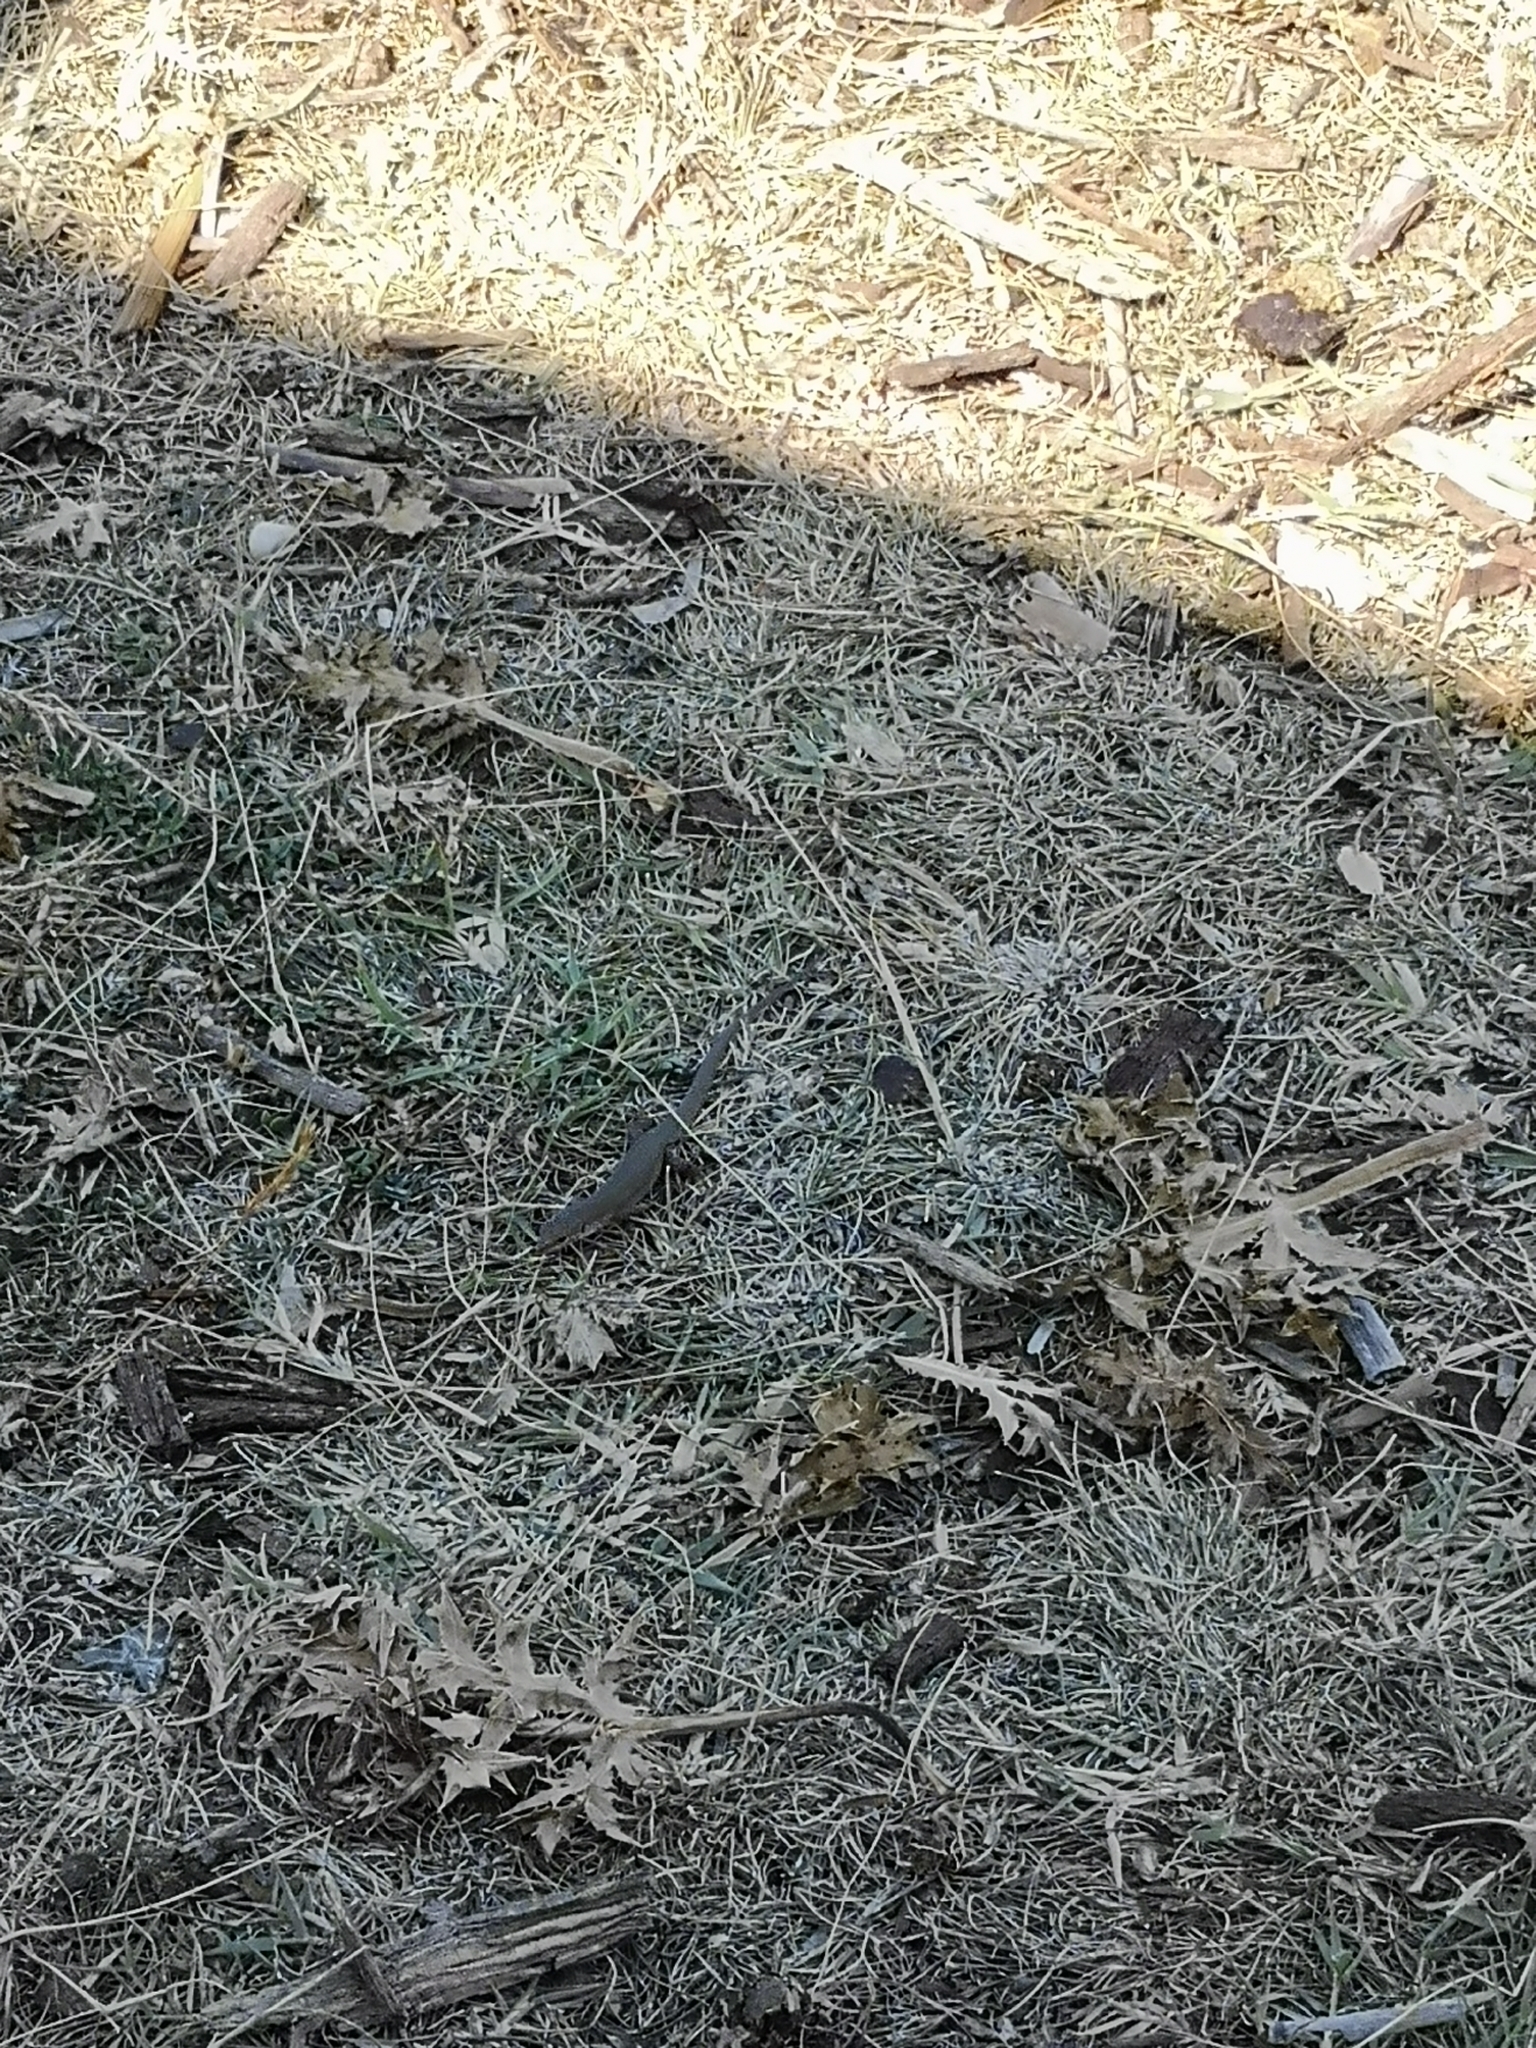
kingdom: Animalia
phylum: Chordata
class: Squamata
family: Lacertidae
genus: Podarcis
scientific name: Podarcis melisellensis
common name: Dalmatian wall lizard
